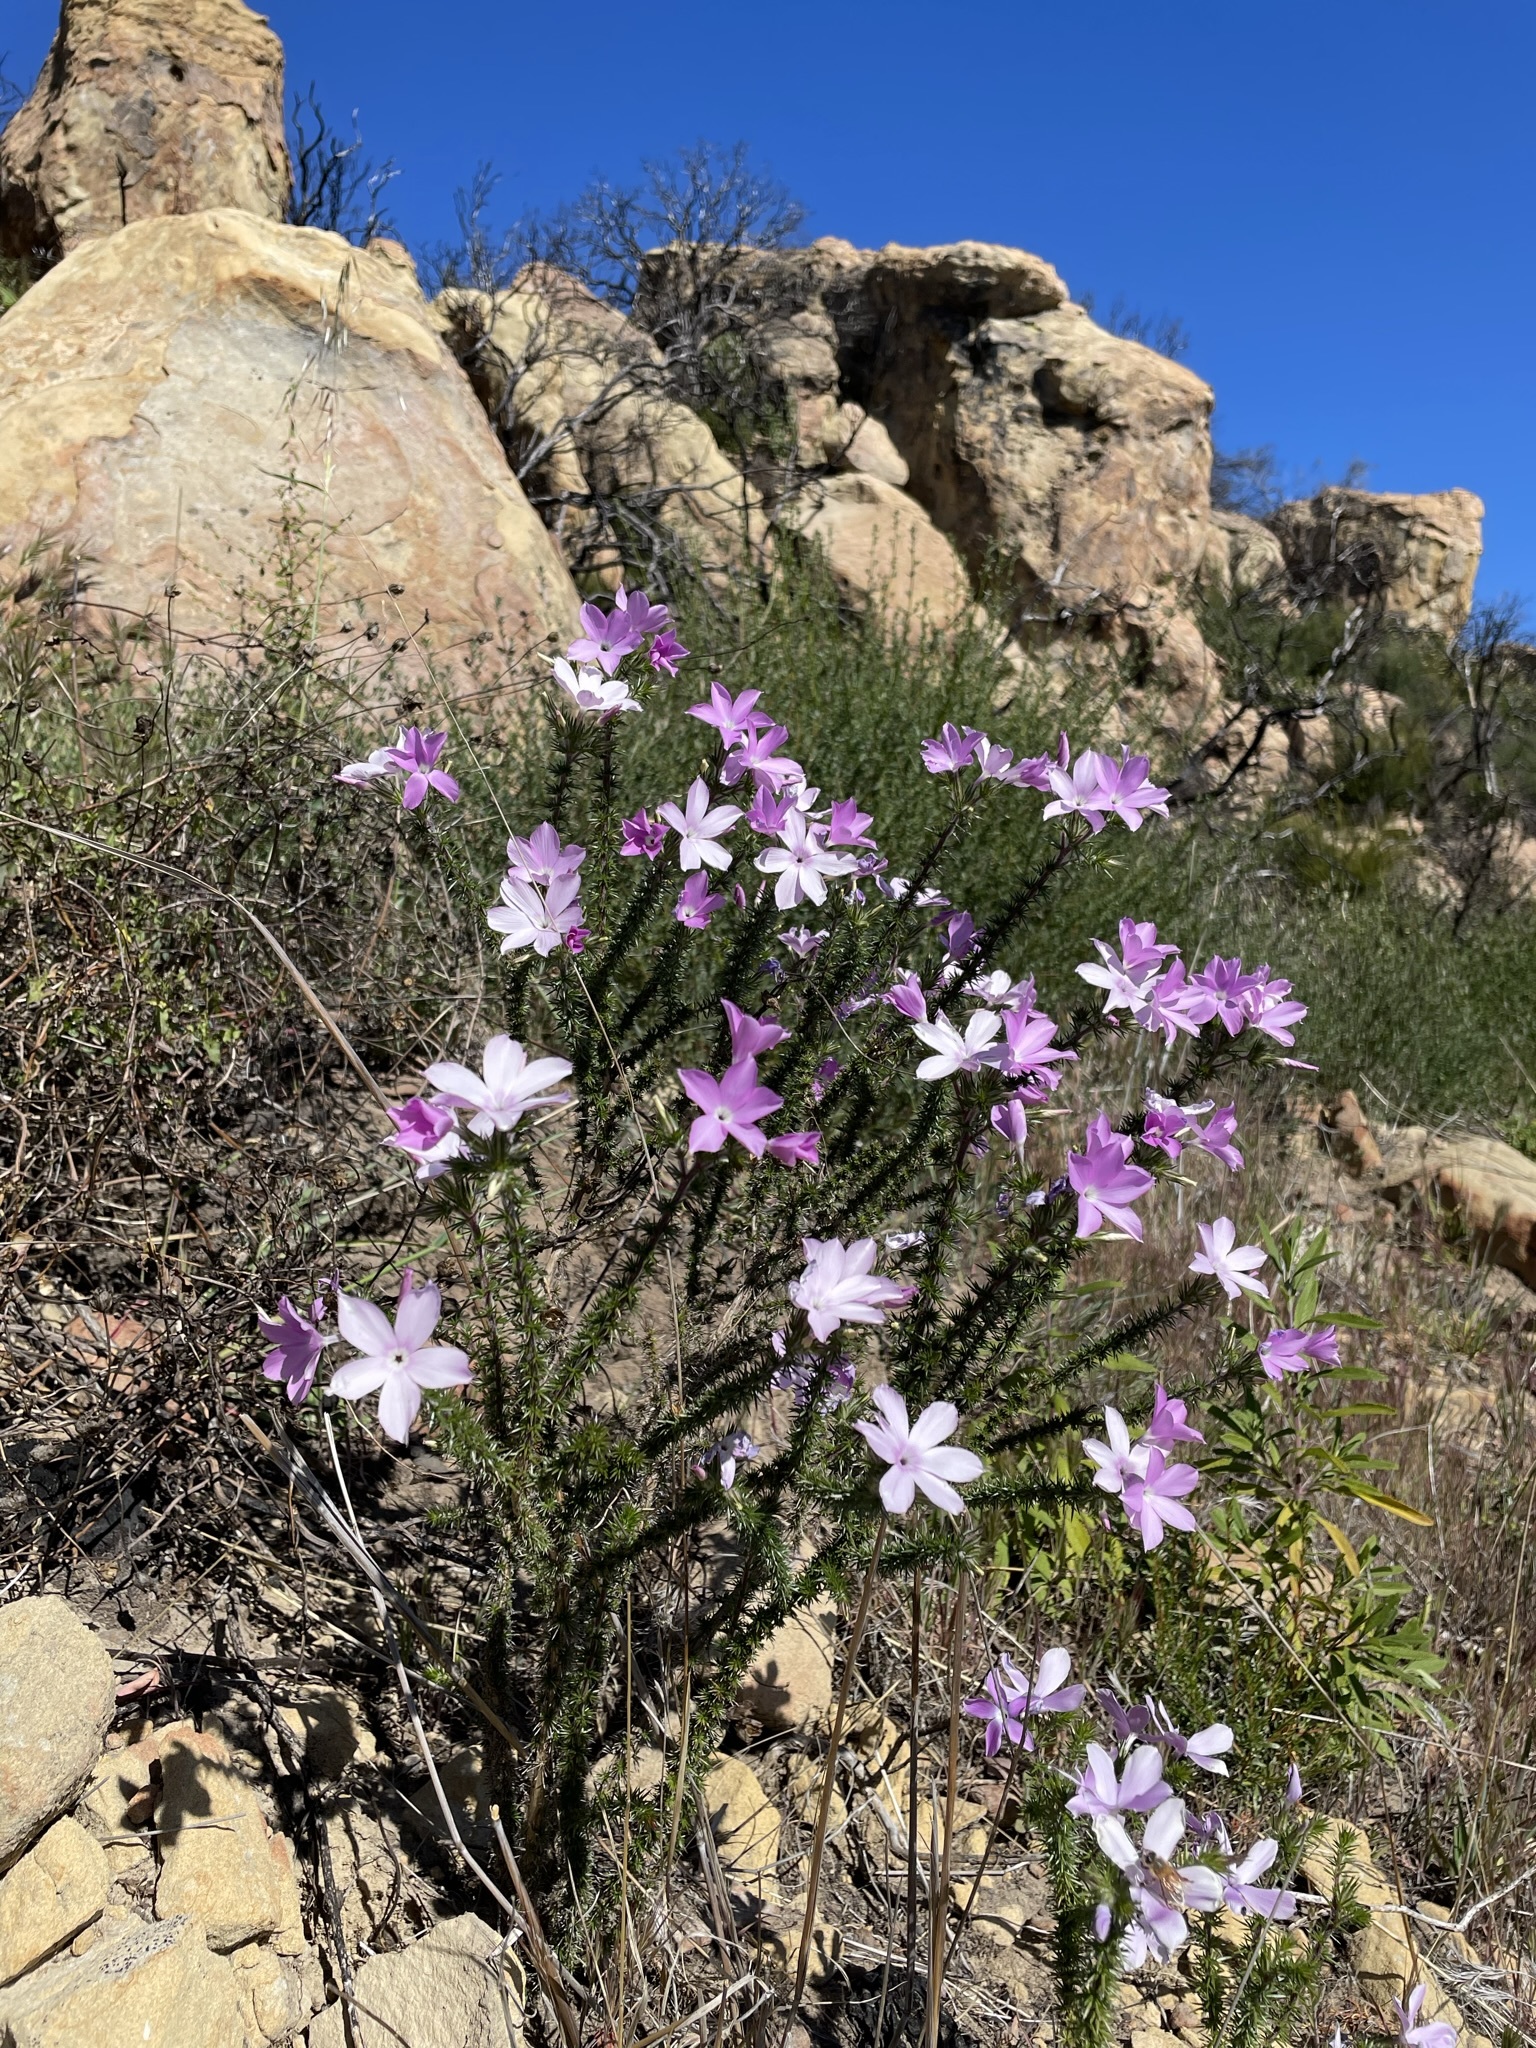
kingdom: Plantae
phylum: Tracheophyta
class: Magnoliopsida
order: Ericales
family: Polemoniaceae
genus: Linanthus
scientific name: Linanthus californicus
